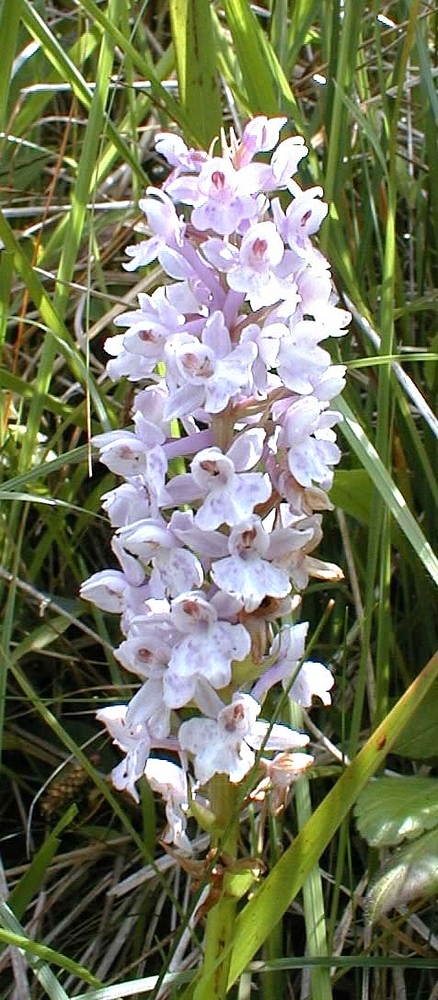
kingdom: Plantae
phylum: Tracheophyta
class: Liliopsida
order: Asparagales
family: Orchidaceae
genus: Dactylodenia
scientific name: Dactylodenia
